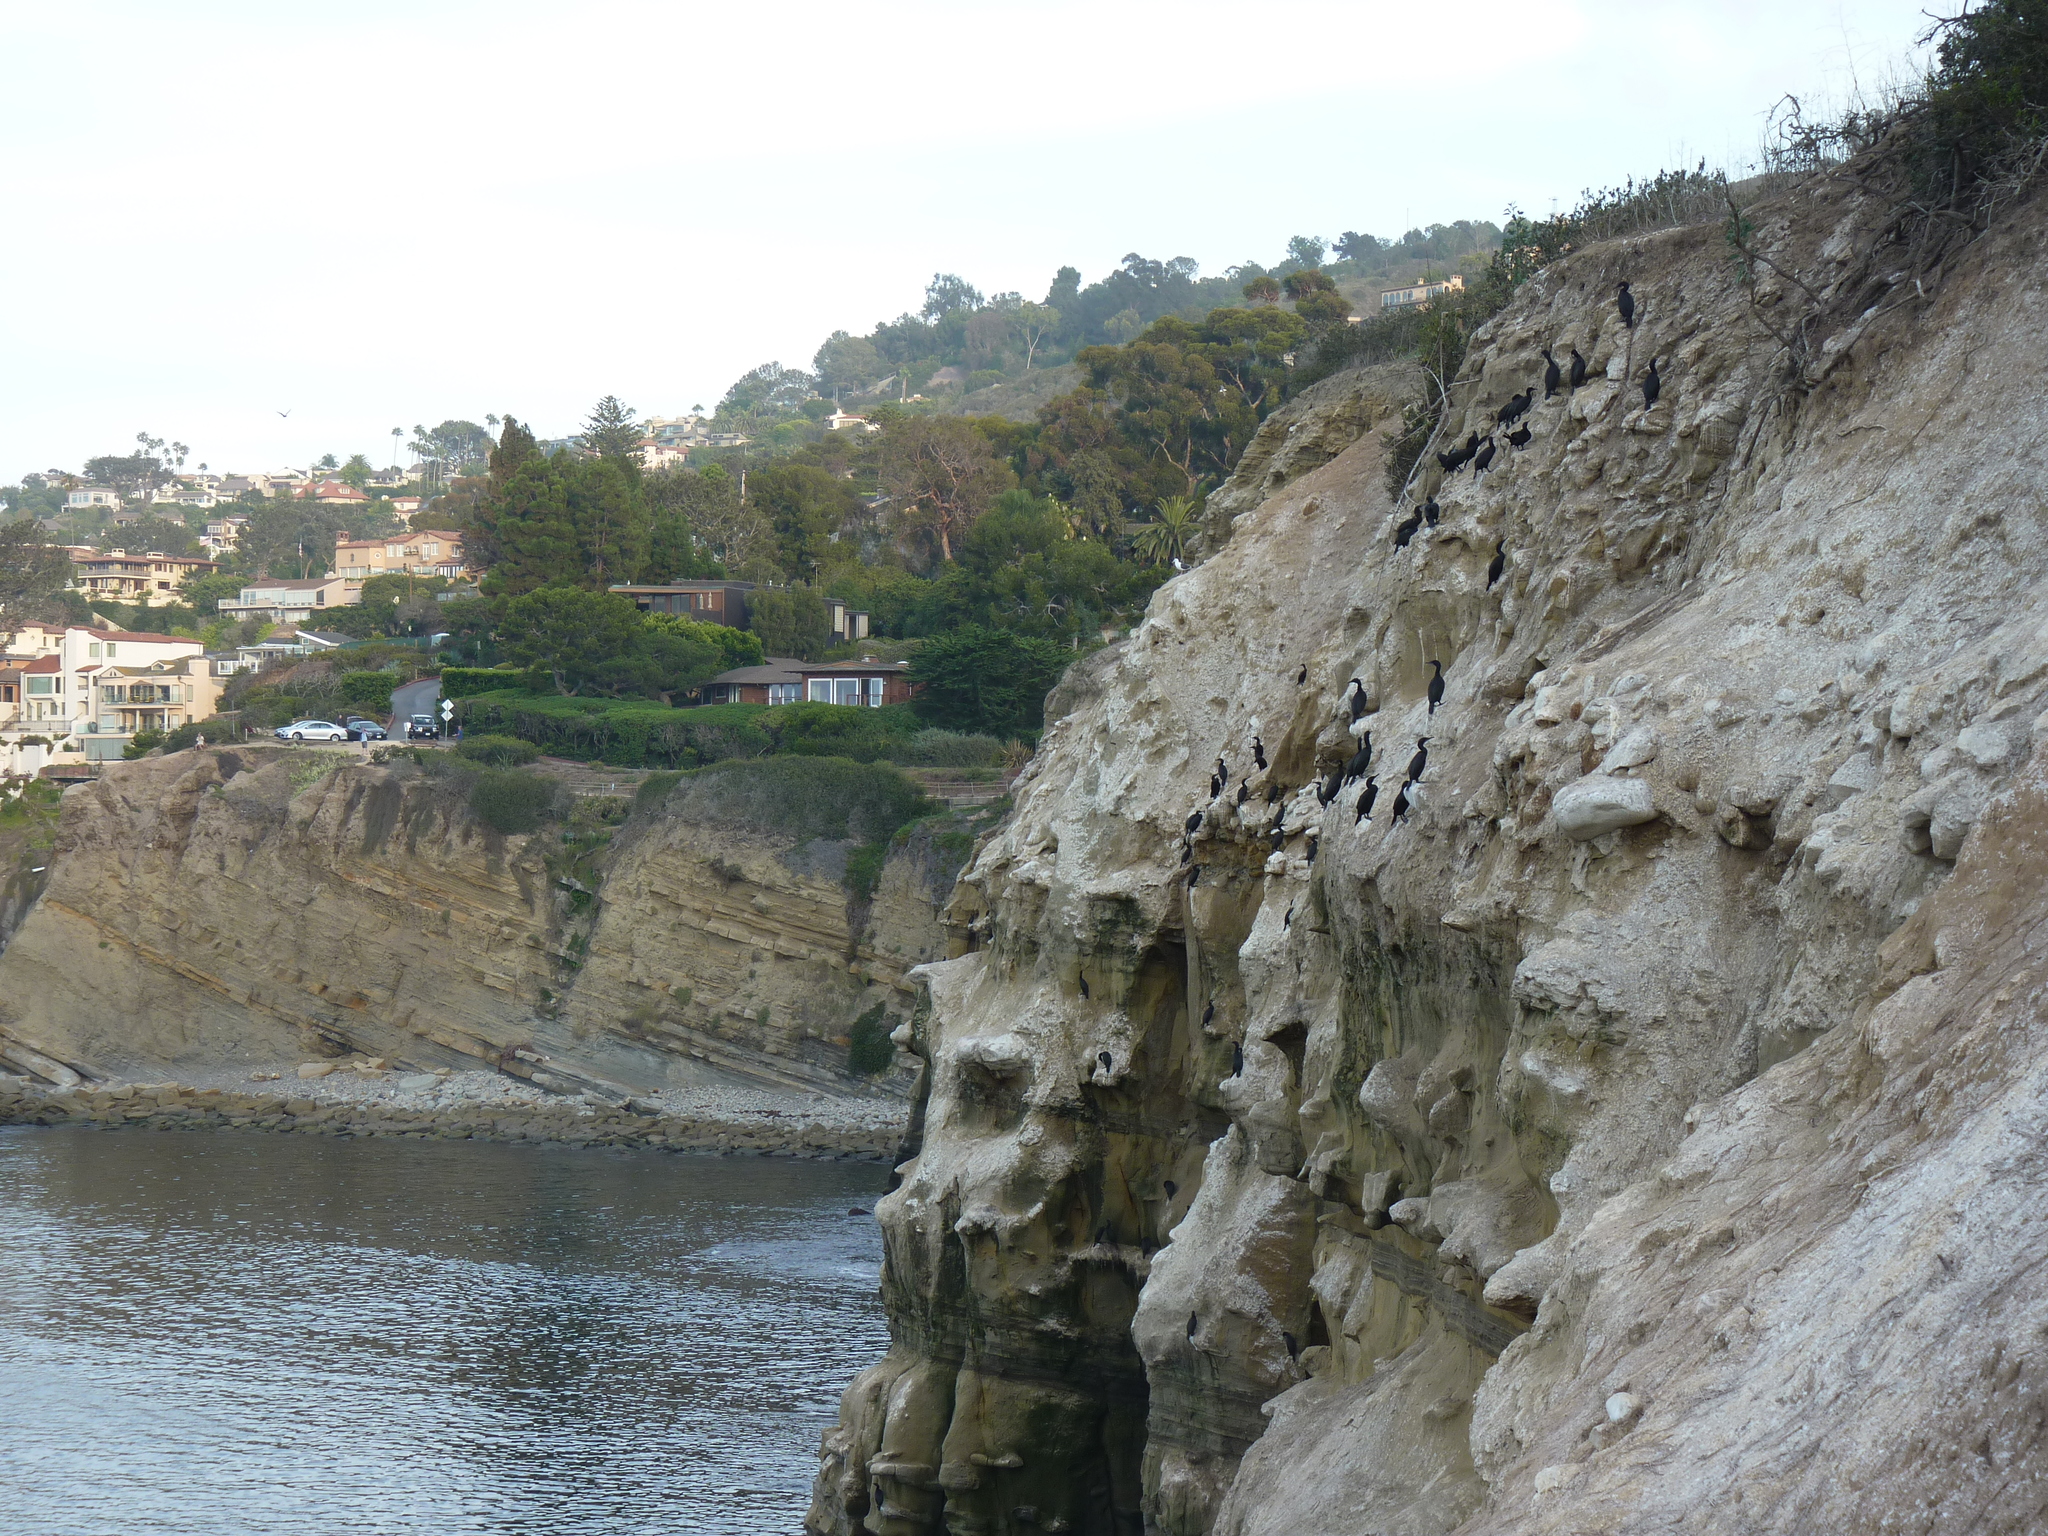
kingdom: Animalia
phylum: Chordata
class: Aves
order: Suliformes
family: Phalacrocoracidae
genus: Urile
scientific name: Urile penicillatus
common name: Brandt's cormorant
